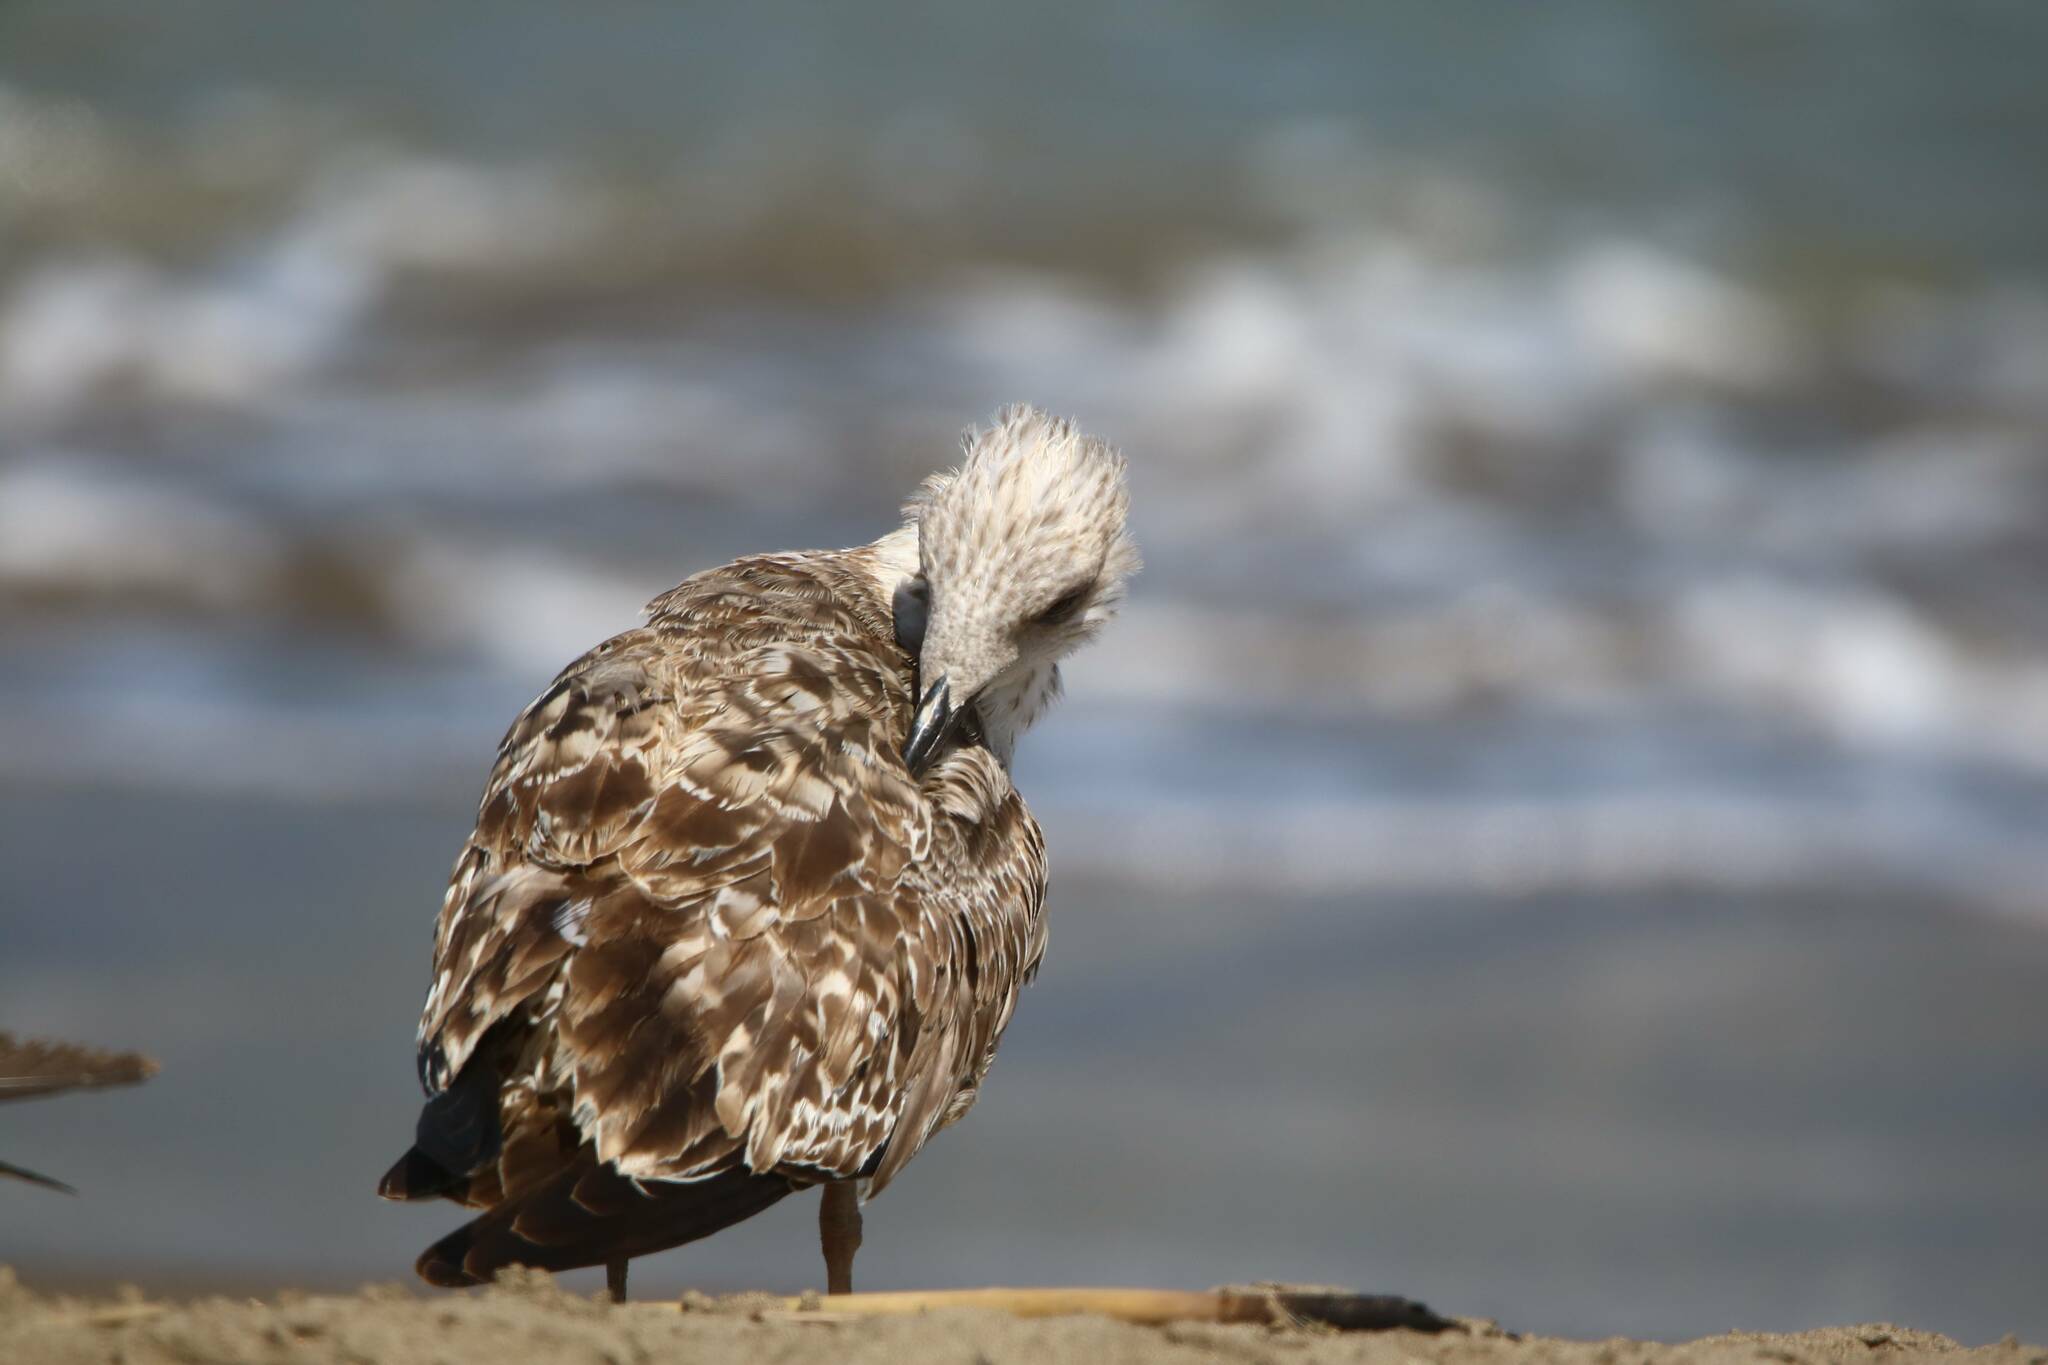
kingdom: Animalia
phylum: Chordata
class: Aves
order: Charadriiformes
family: Laridae
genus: Larus
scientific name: Larus michahellis
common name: Yellow-legged gull
